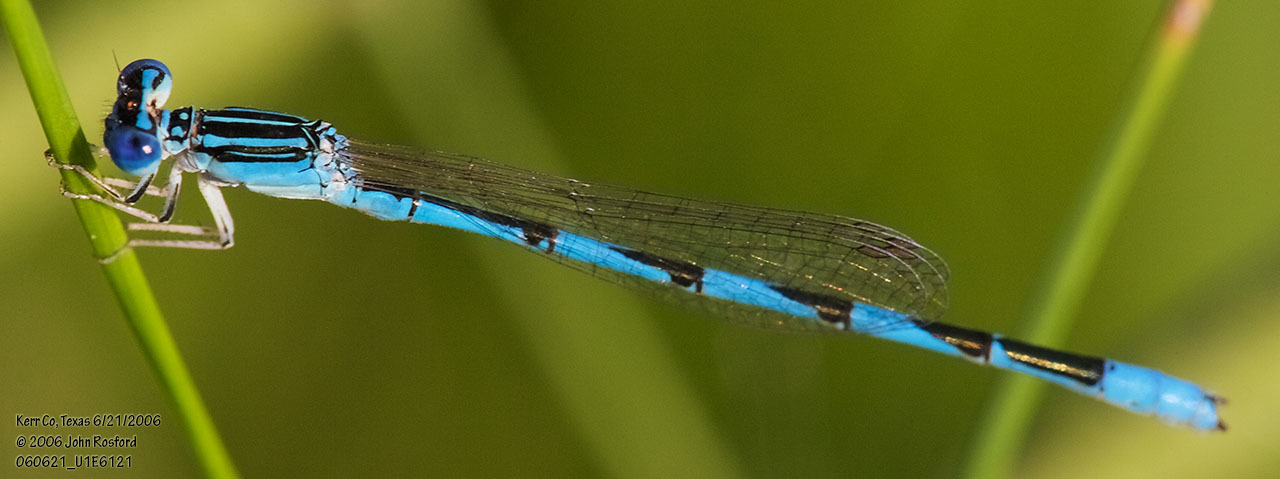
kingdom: Animalia
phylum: Arthropoda
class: Insecta
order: Odonata
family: Coenagrionidae
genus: Enallagma
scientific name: Enallagma basidens
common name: Double-striped bluet
